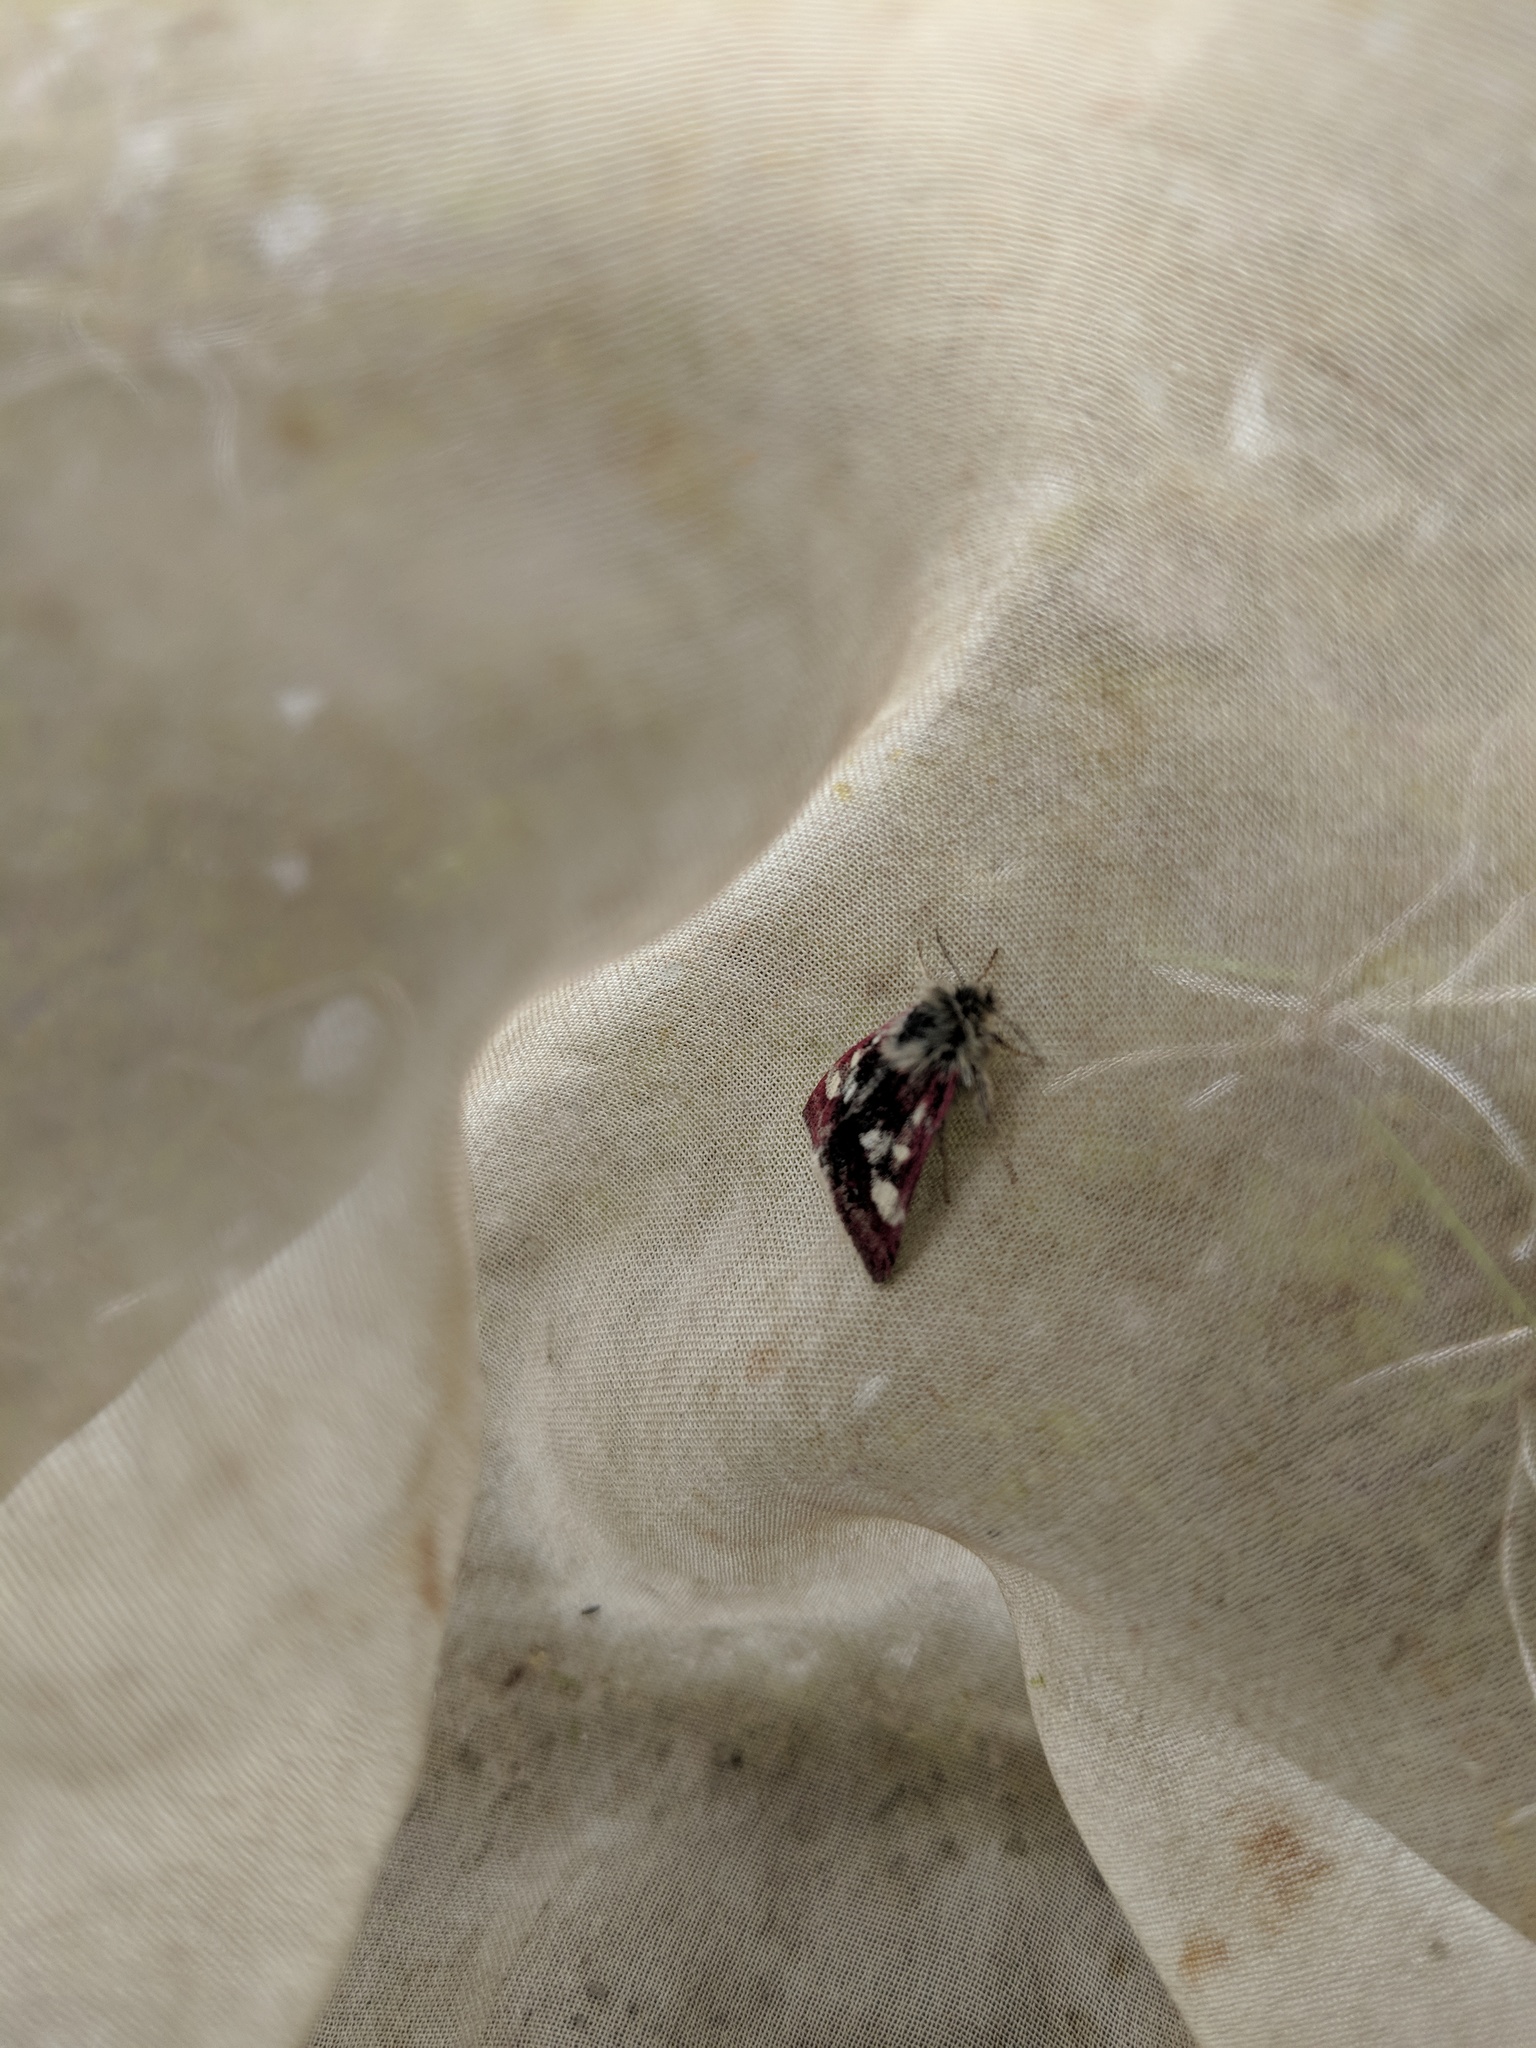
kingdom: Animalia
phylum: Arthropoda
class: Insecta
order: Lepidoptera
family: Noctuidae
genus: Eutricopis
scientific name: Eutricopis nexilis
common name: White-spotted midget moth
